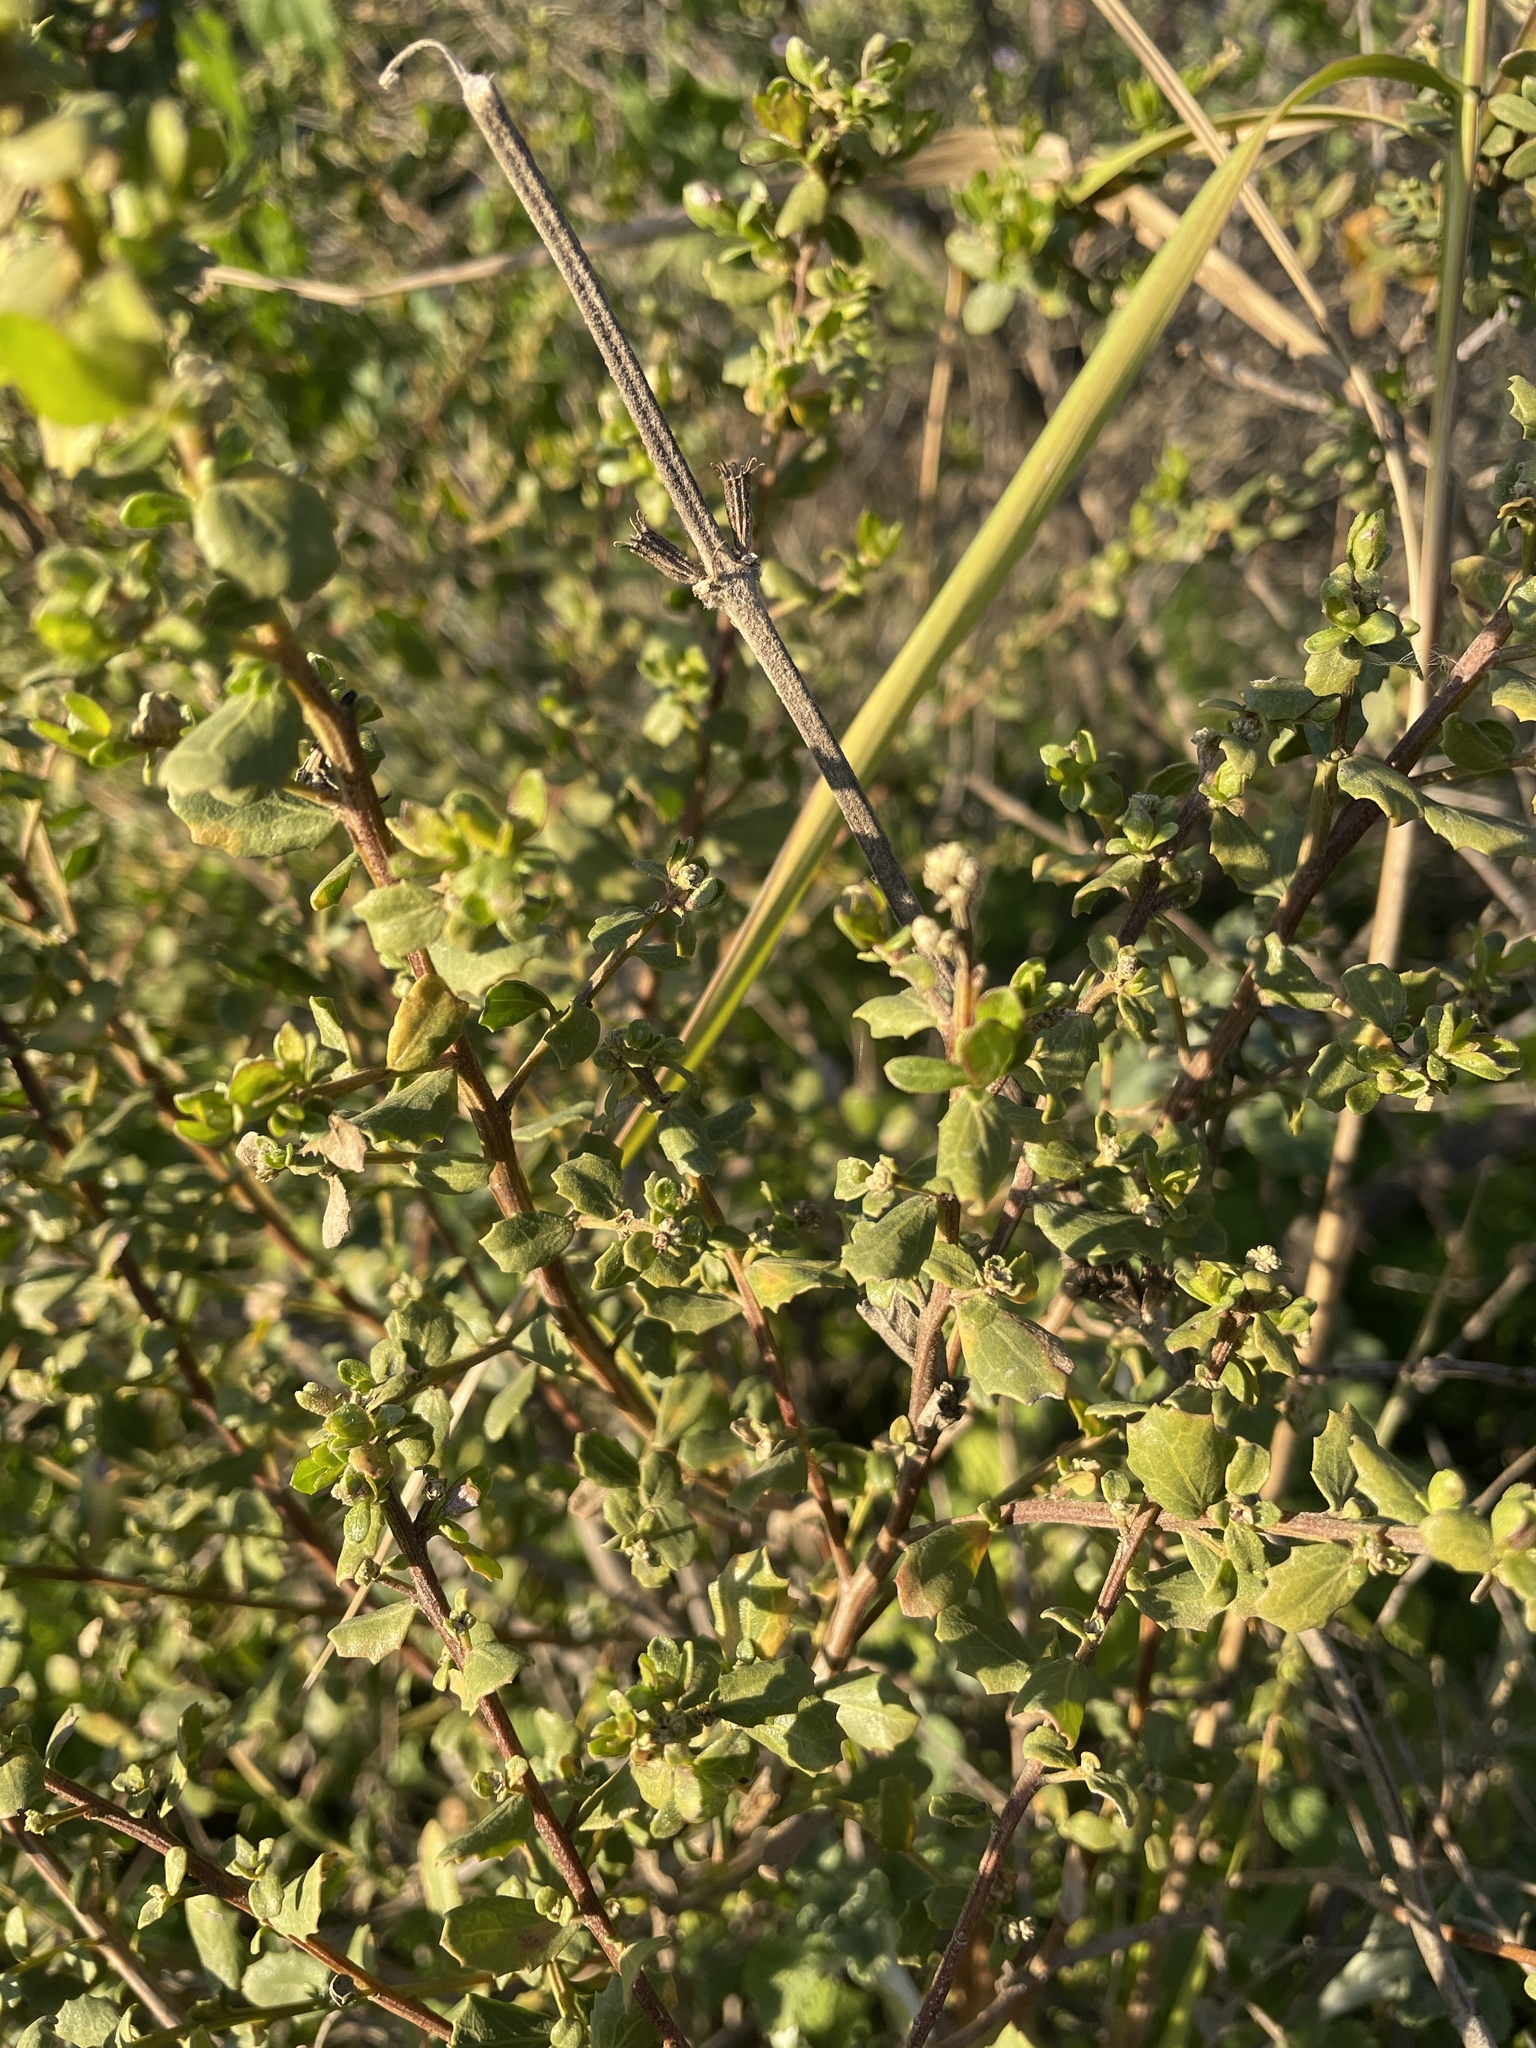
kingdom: Plantae
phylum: Tracheophyta
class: Magnoliopsida
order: Asterales
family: Asteraceae
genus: Baccharis
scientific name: Baccharis pilularis
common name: Coyotebrush
